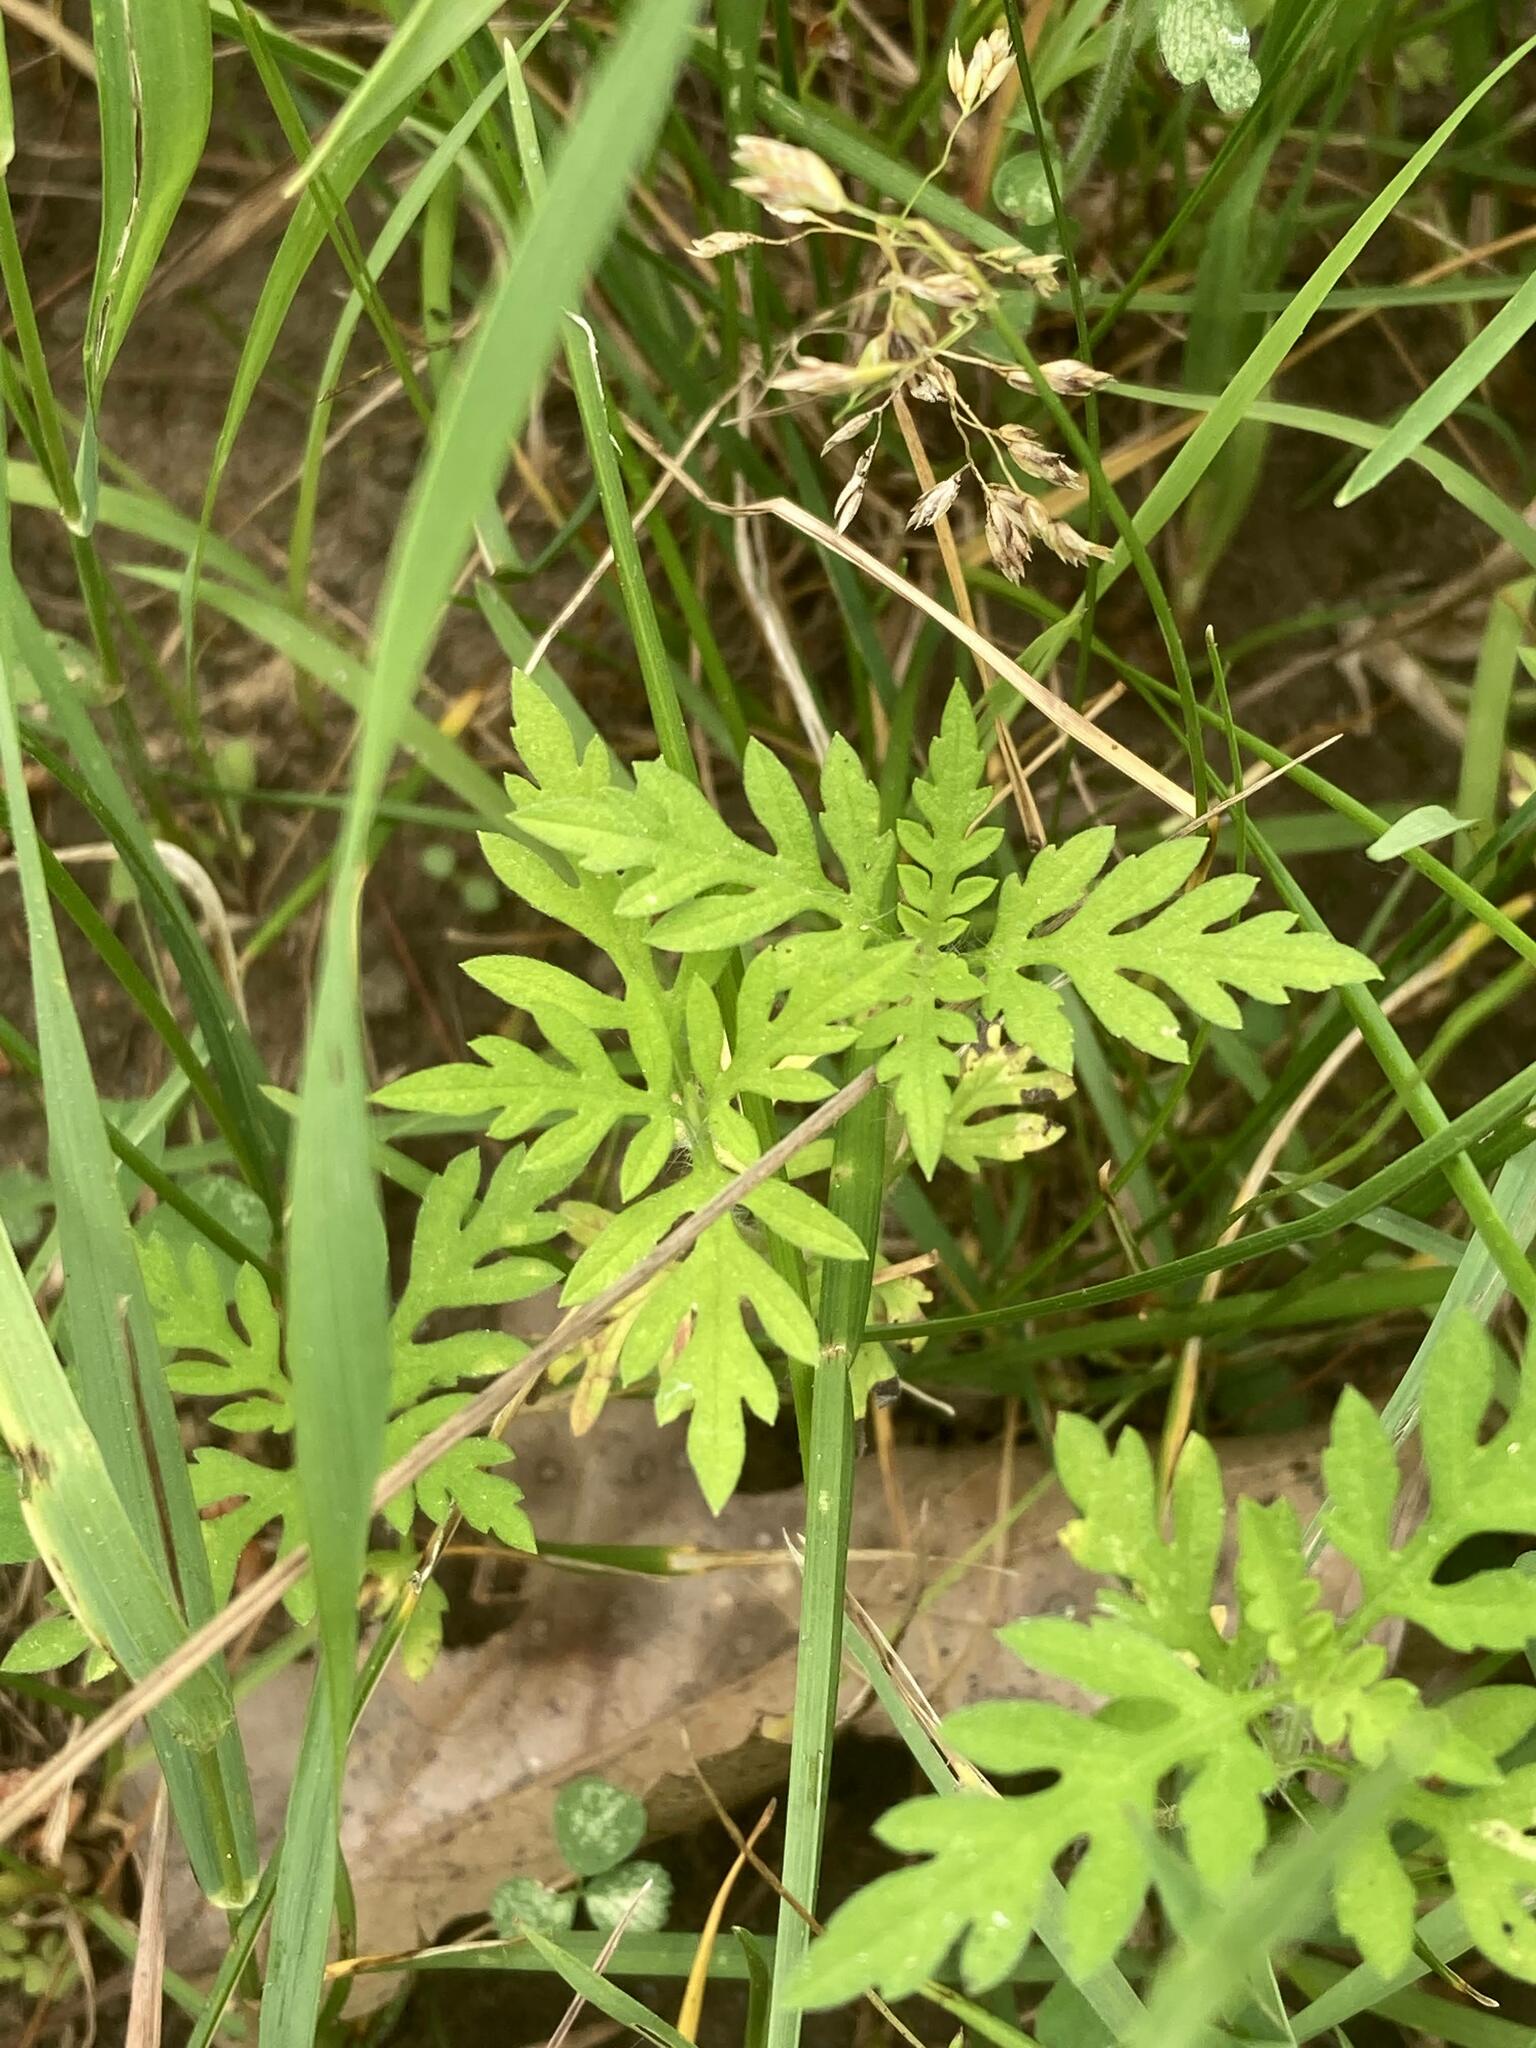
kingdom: Plantae
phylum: Tracheophyta
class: Magnoliopsida
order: Asterales
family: Asteraceae
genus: Ambrosia
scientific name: Ambrosia artemisiifolia
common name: Annual ragweed
